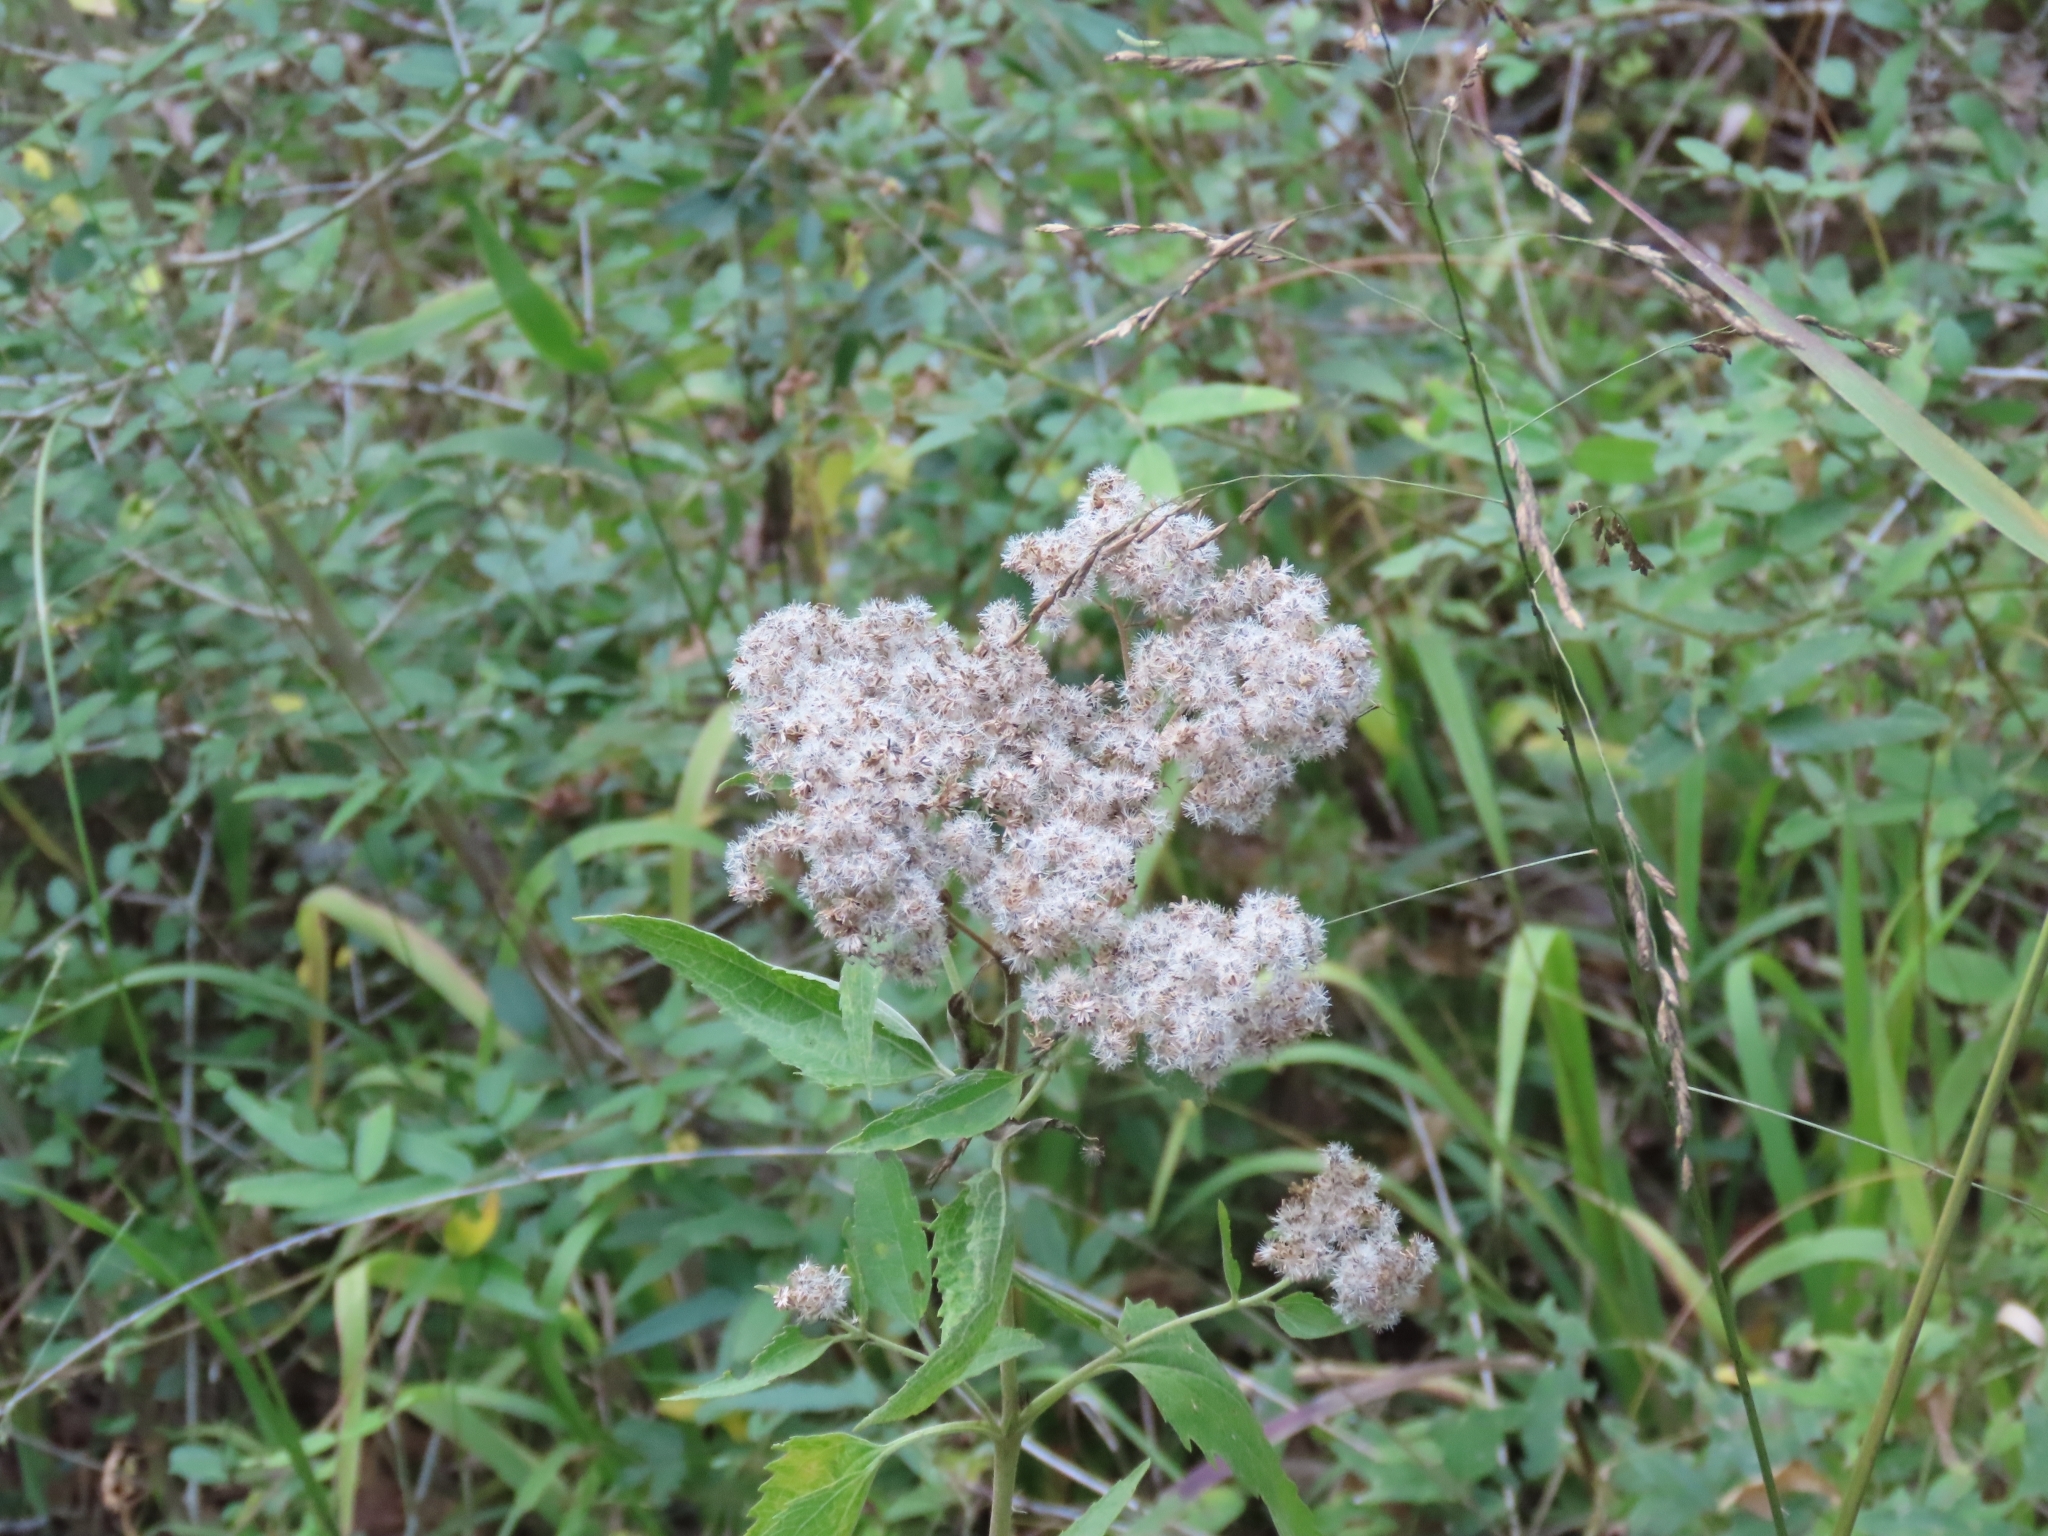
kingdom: Plantae
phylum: Tracheophyta
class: Magnoliopsida
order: Asterales
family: Asteraceae
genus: Eupatorium
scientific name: Eupatorium serotinum
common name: Late boneset
